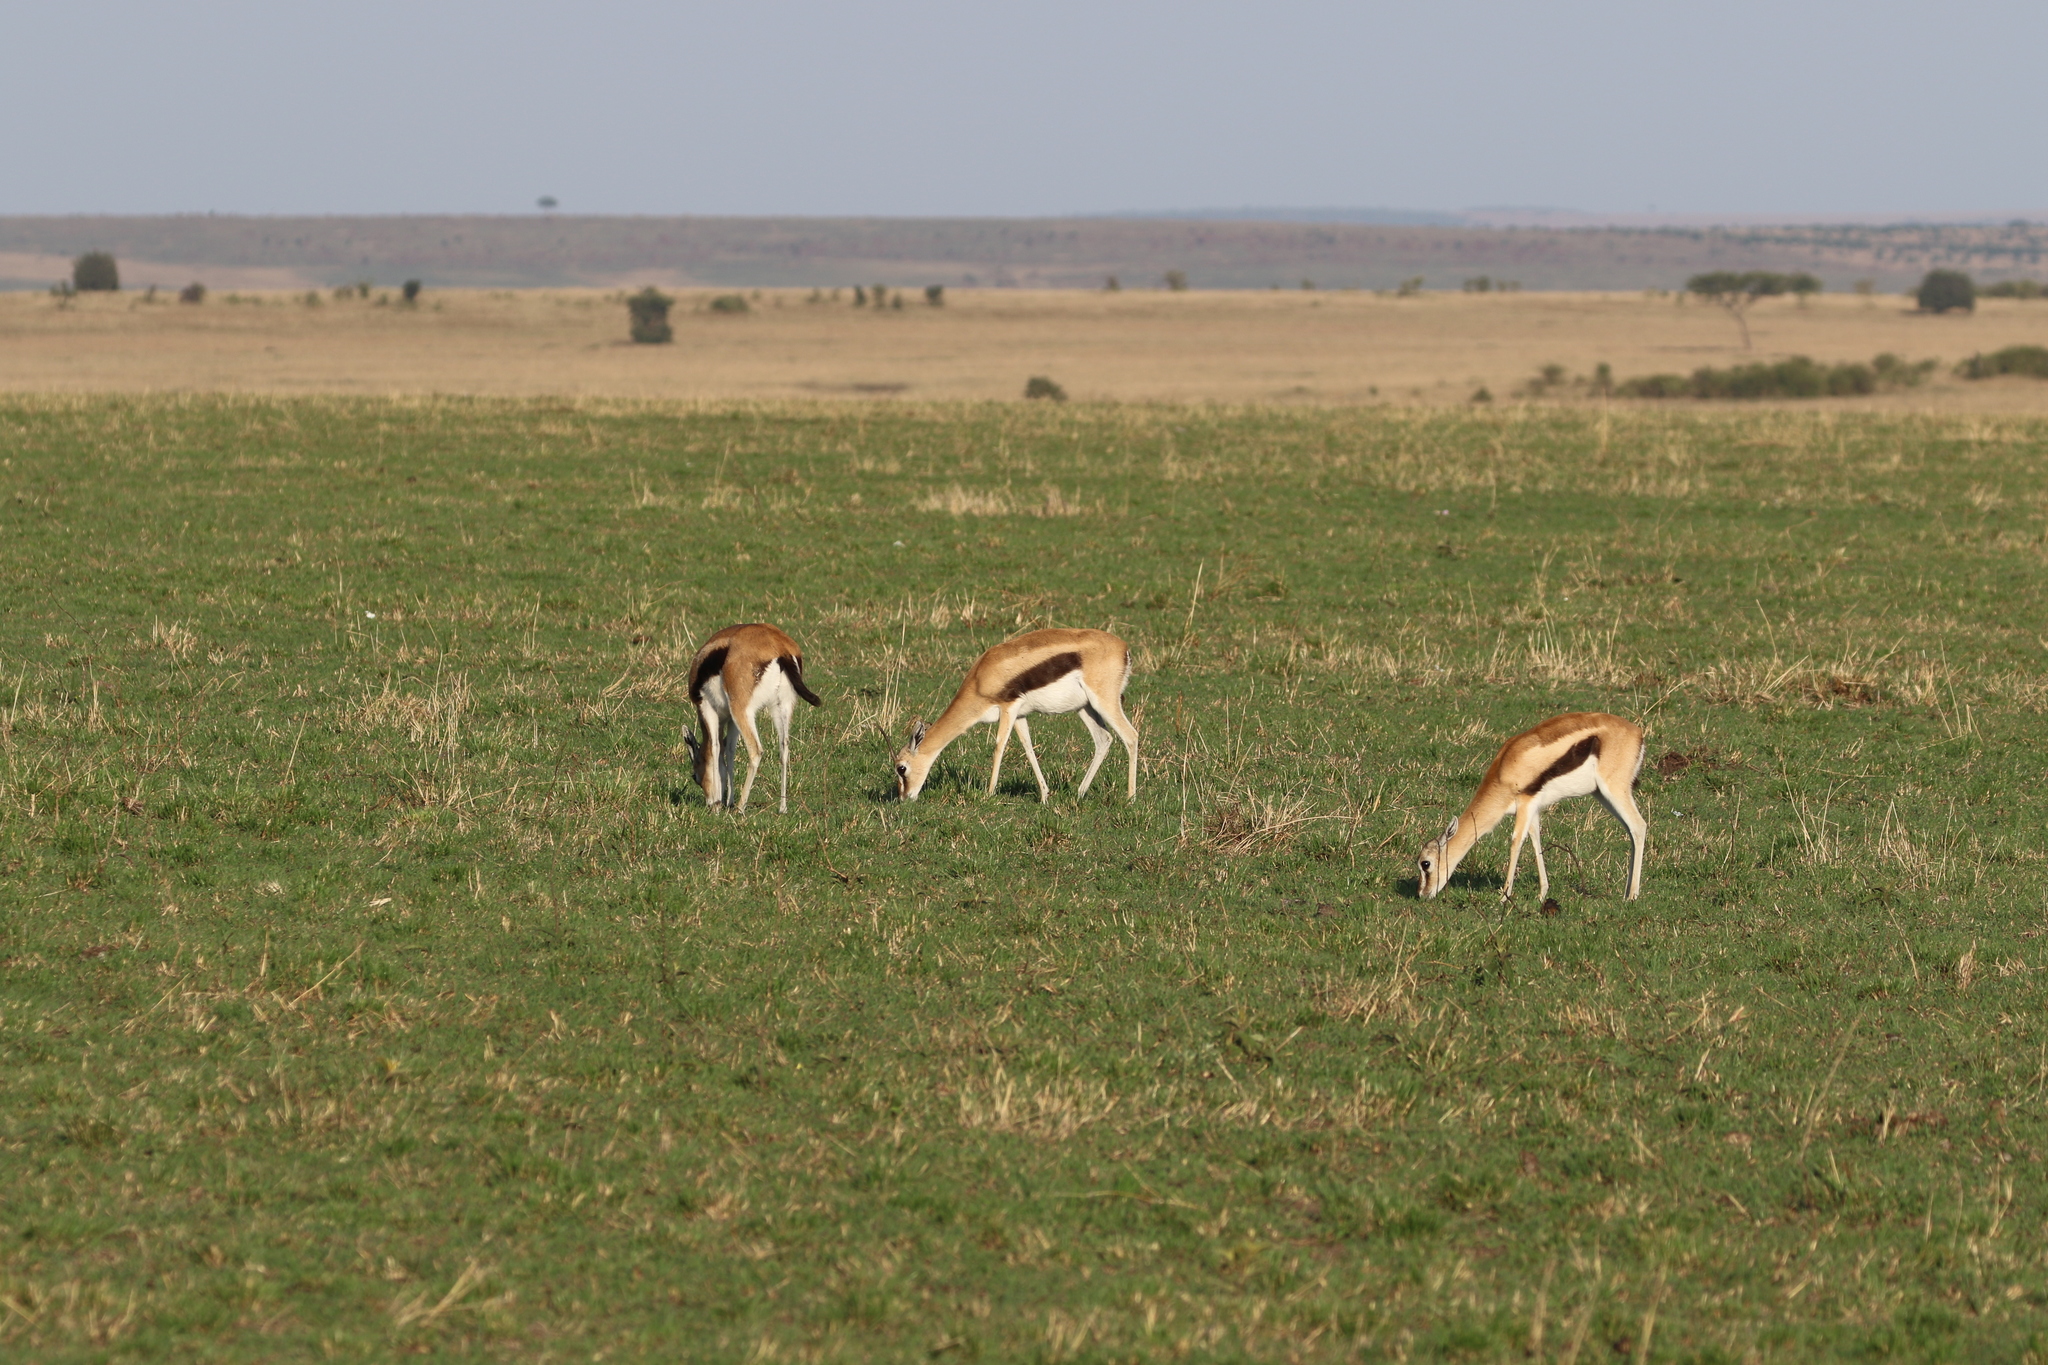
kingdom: Animalia
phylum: Chordata
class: Mammalia
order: Artiodactyla
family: Bovidae
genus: Eudorcas
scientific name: Eudorcas thomsonii
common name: Thomson's gazelle
